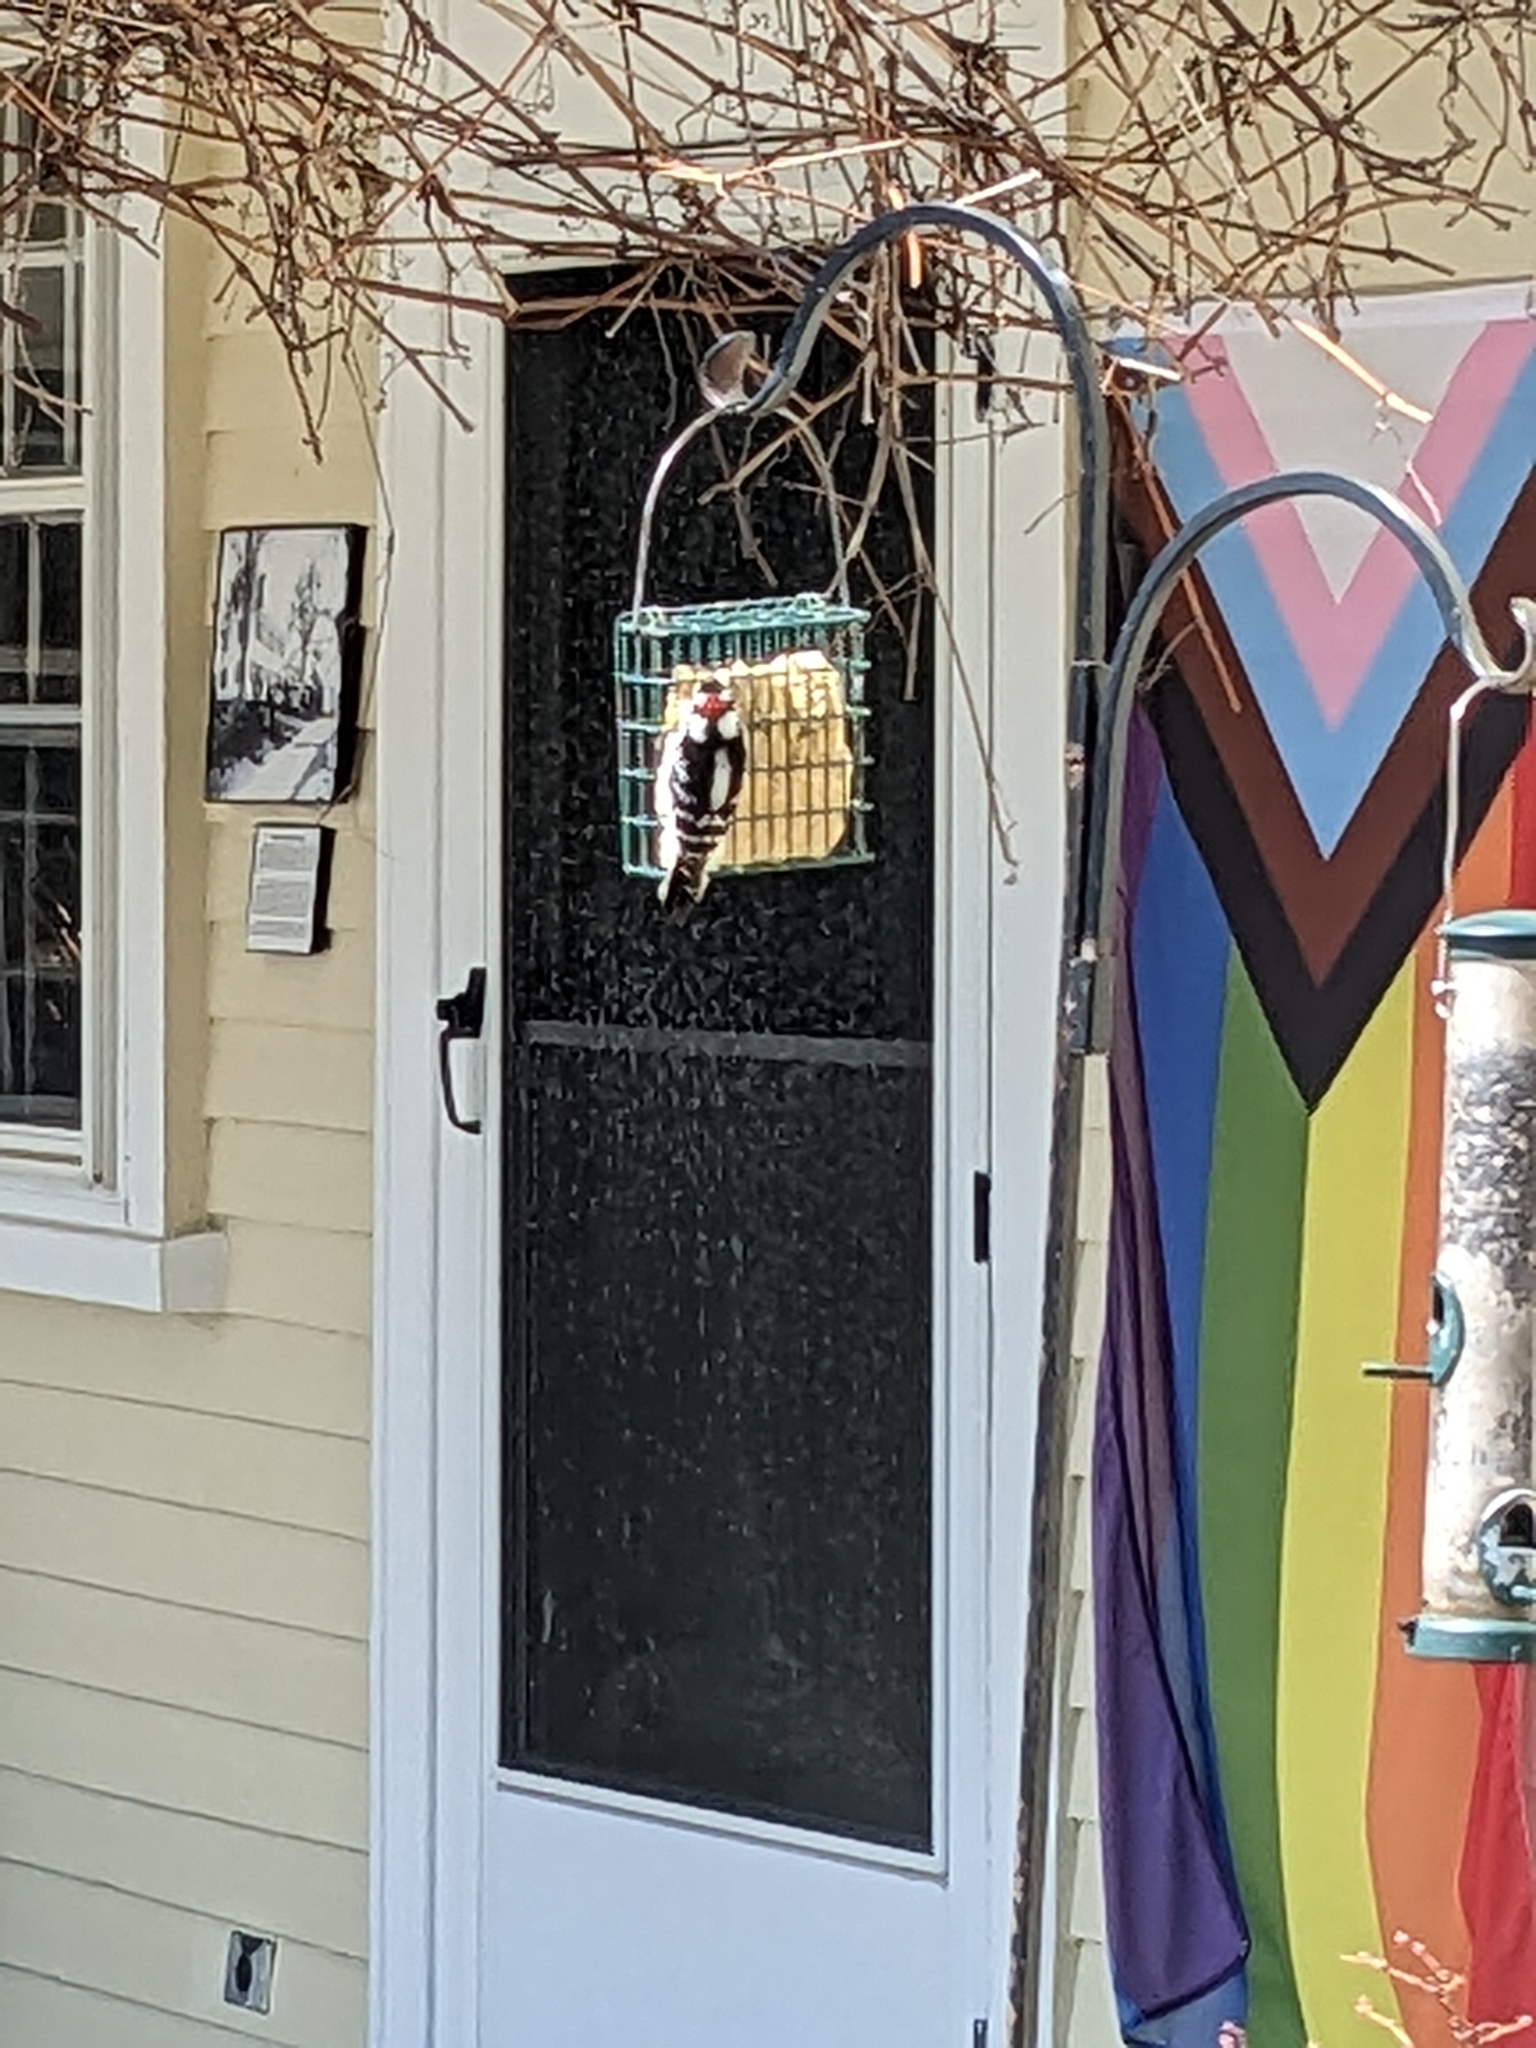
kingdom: Animalia
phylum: Chordata
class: Aves
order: Piciformes
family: Picidae
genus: Dryobates
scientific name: Dryobates pubescens
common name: Downy woodpecker
